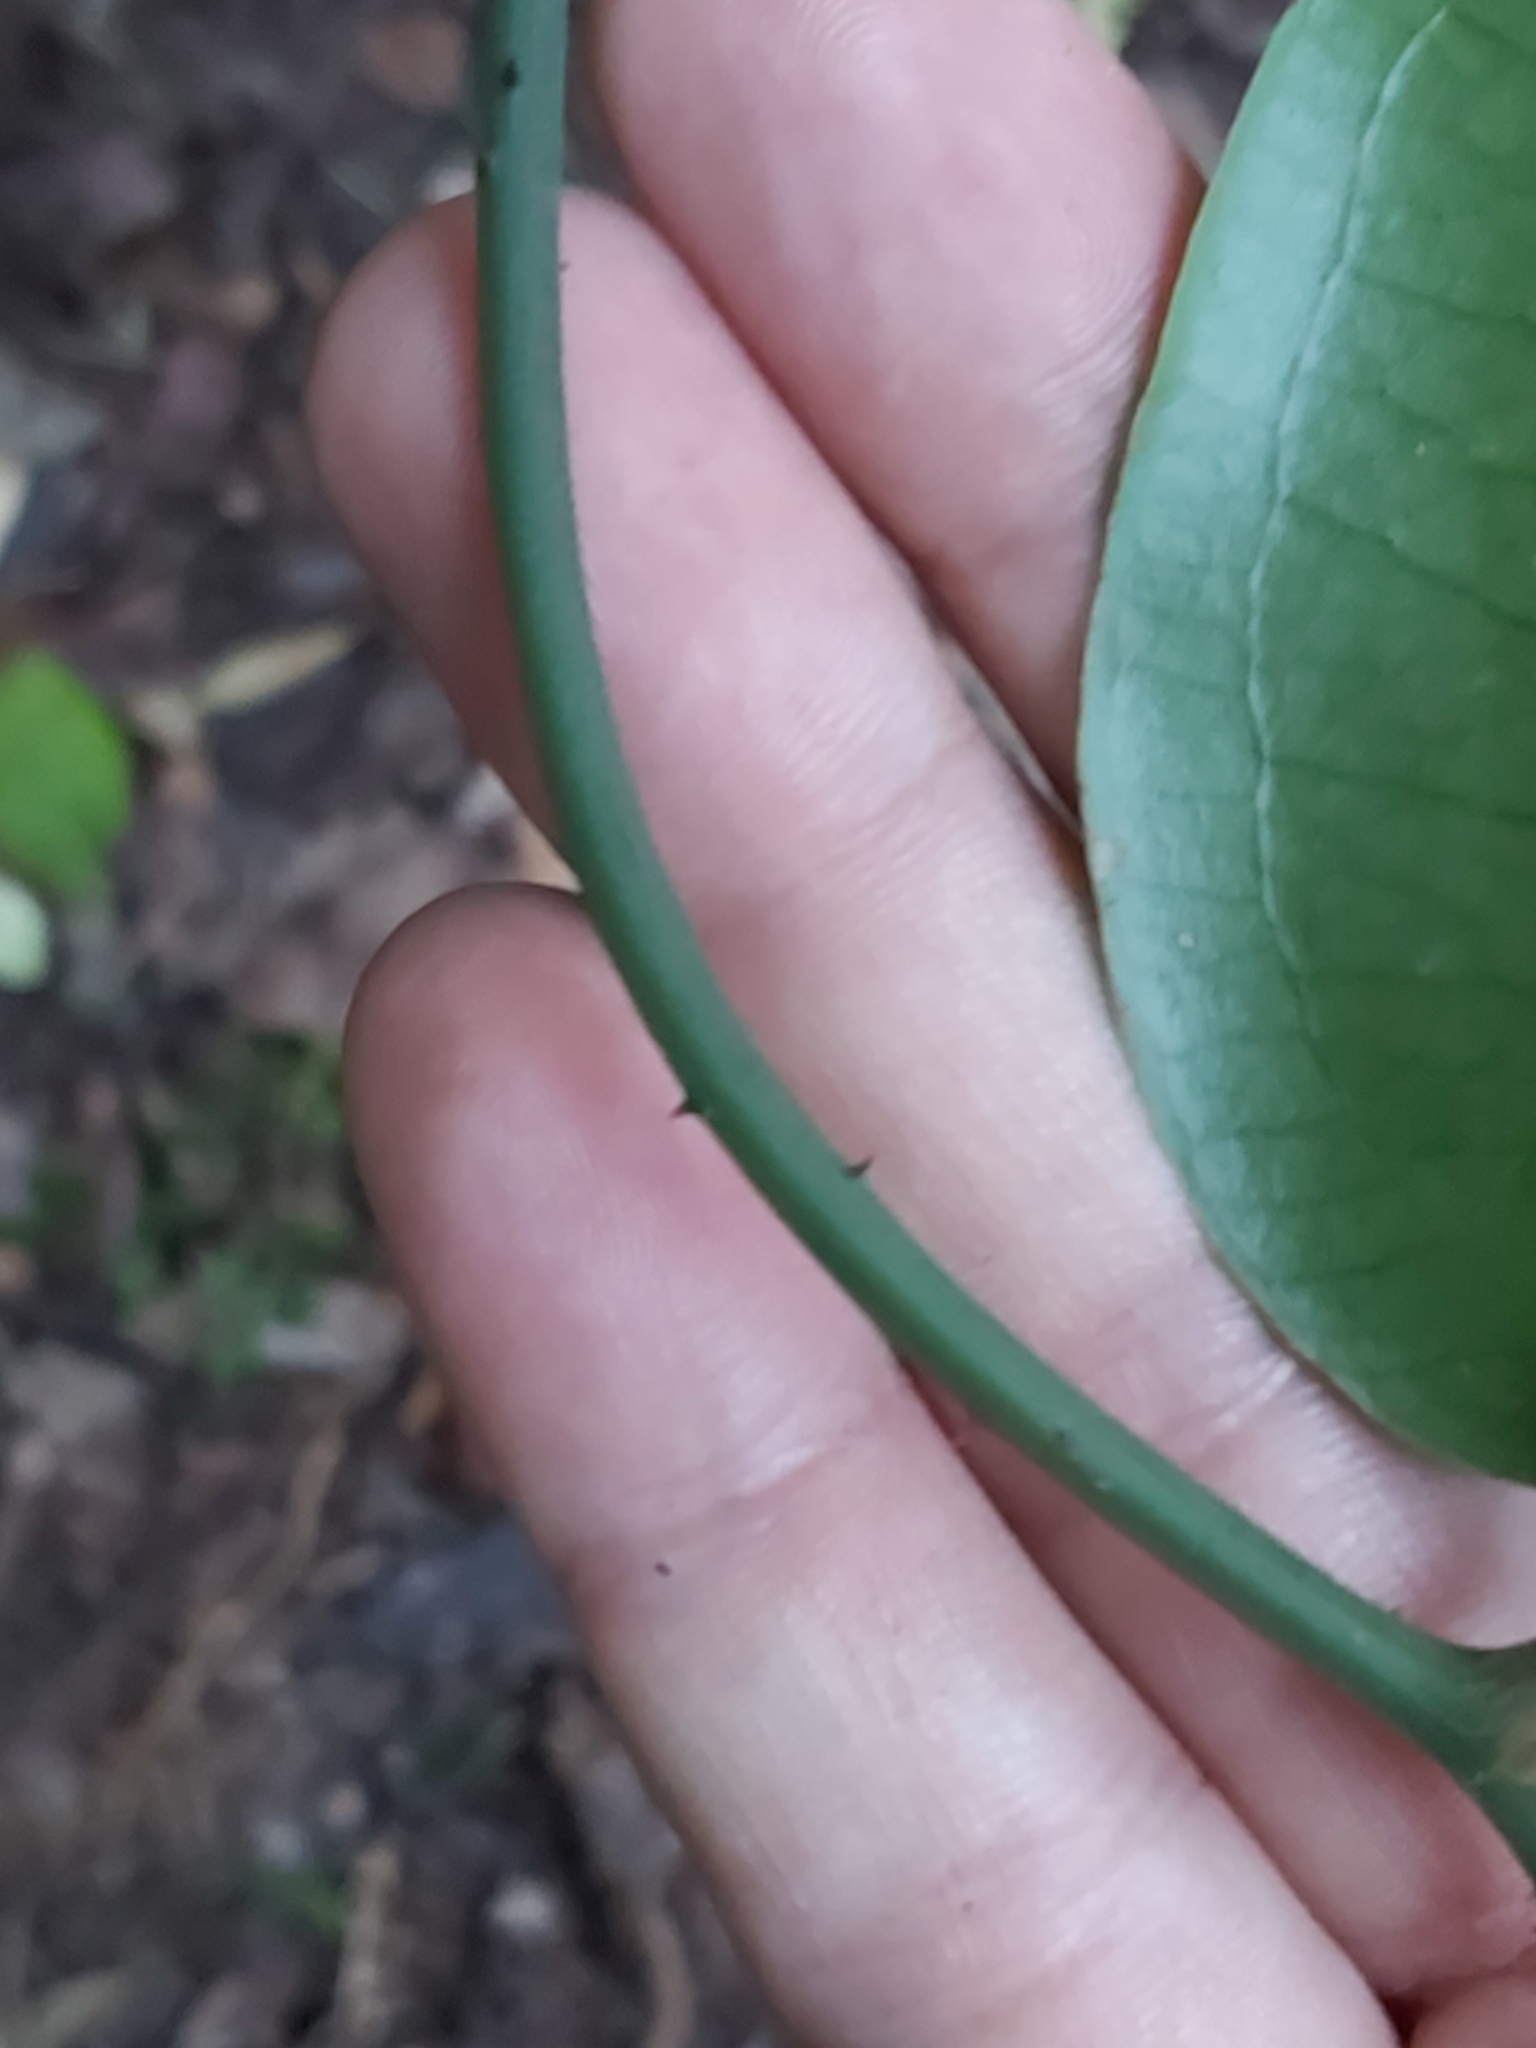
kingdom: Plantae
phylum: Tracheophyta
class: Liliopsida
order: Liliales
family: Smilacaceae
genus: Smilax
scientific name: Smilax australis
